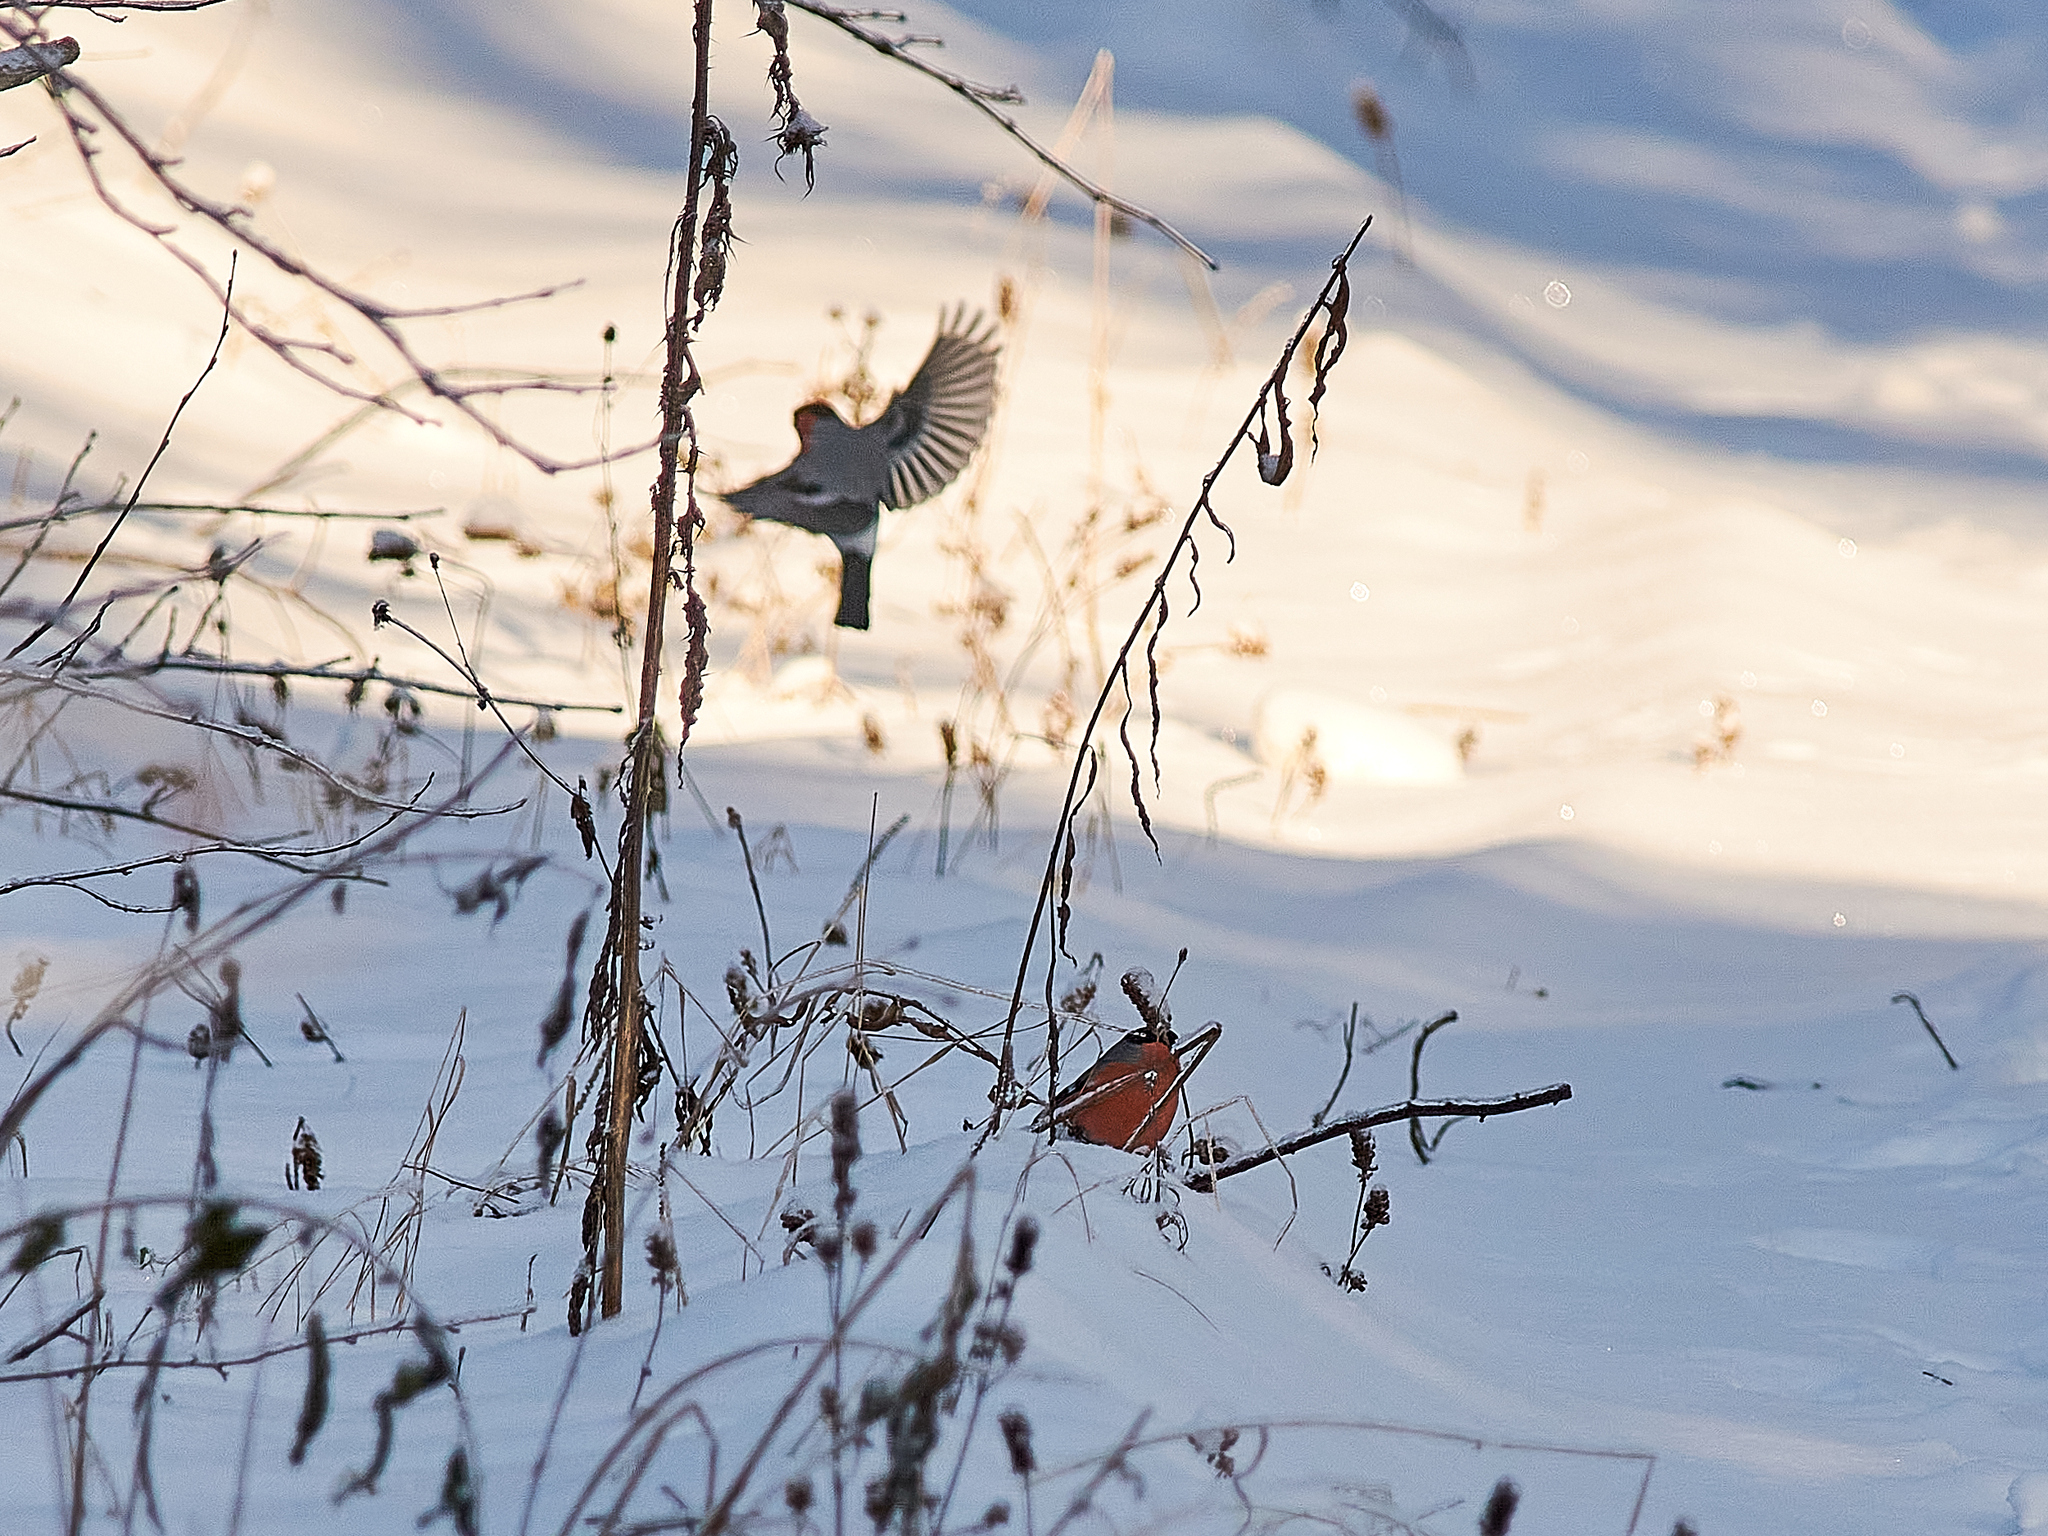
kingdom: Animalia
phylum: Chordata
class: Aves
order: Passeriformes
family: Fringillidae
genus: Pyrrhula
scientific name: Pyrrhula pyrrhula
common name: Eurasian bullfinch
